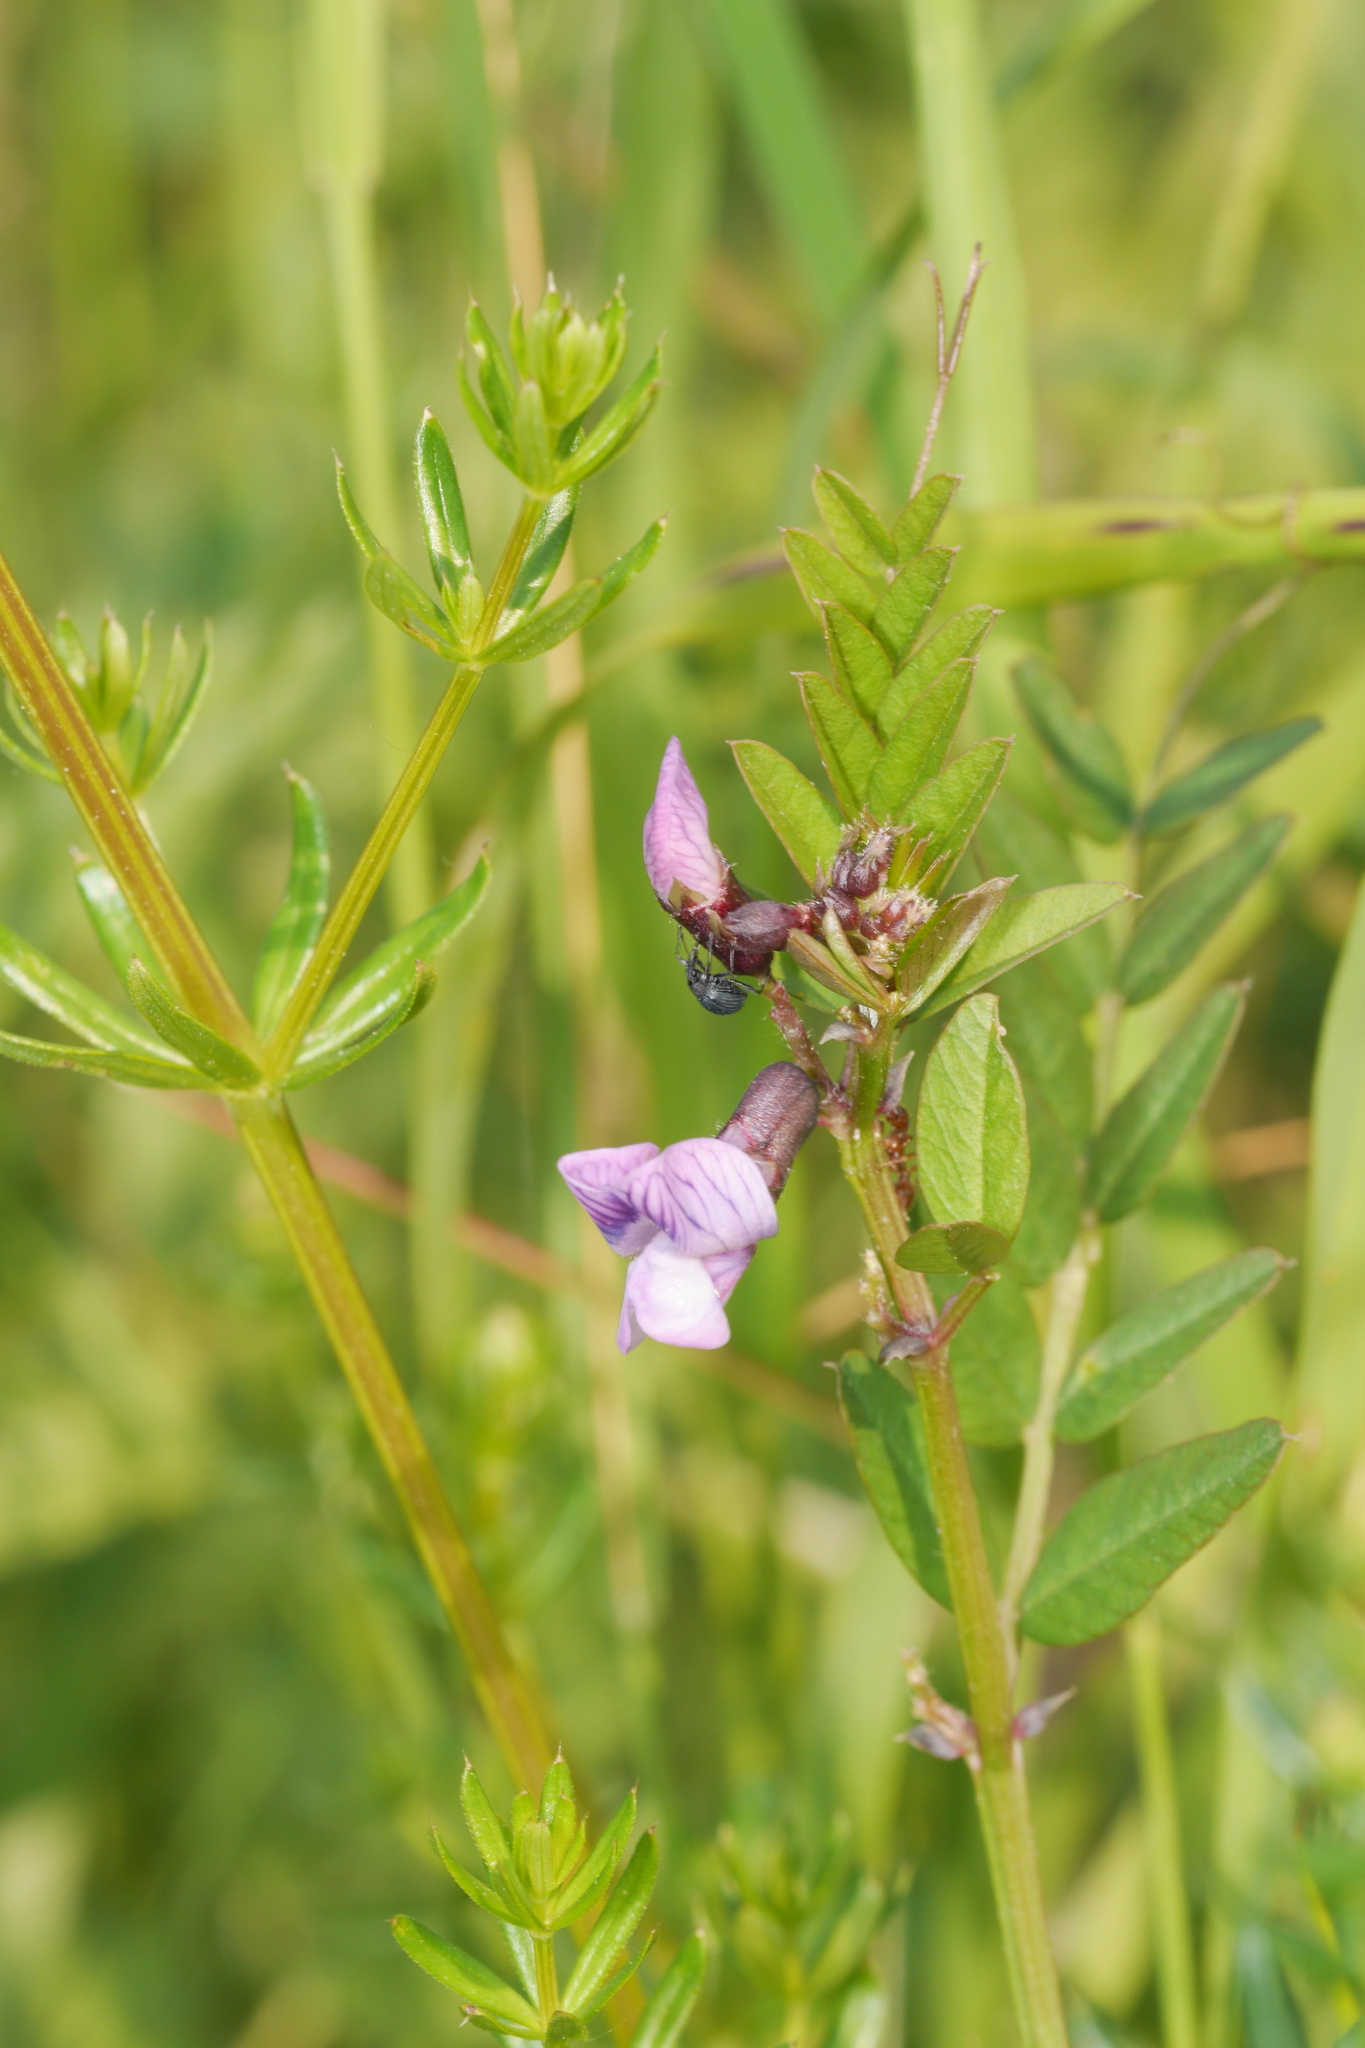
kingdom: Plantae
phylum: Tracheophyta
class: Magnoliopsida
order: Fabales
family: Fabaceae
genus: Vicia
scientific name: Vicia sepium
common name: Bush vetch
